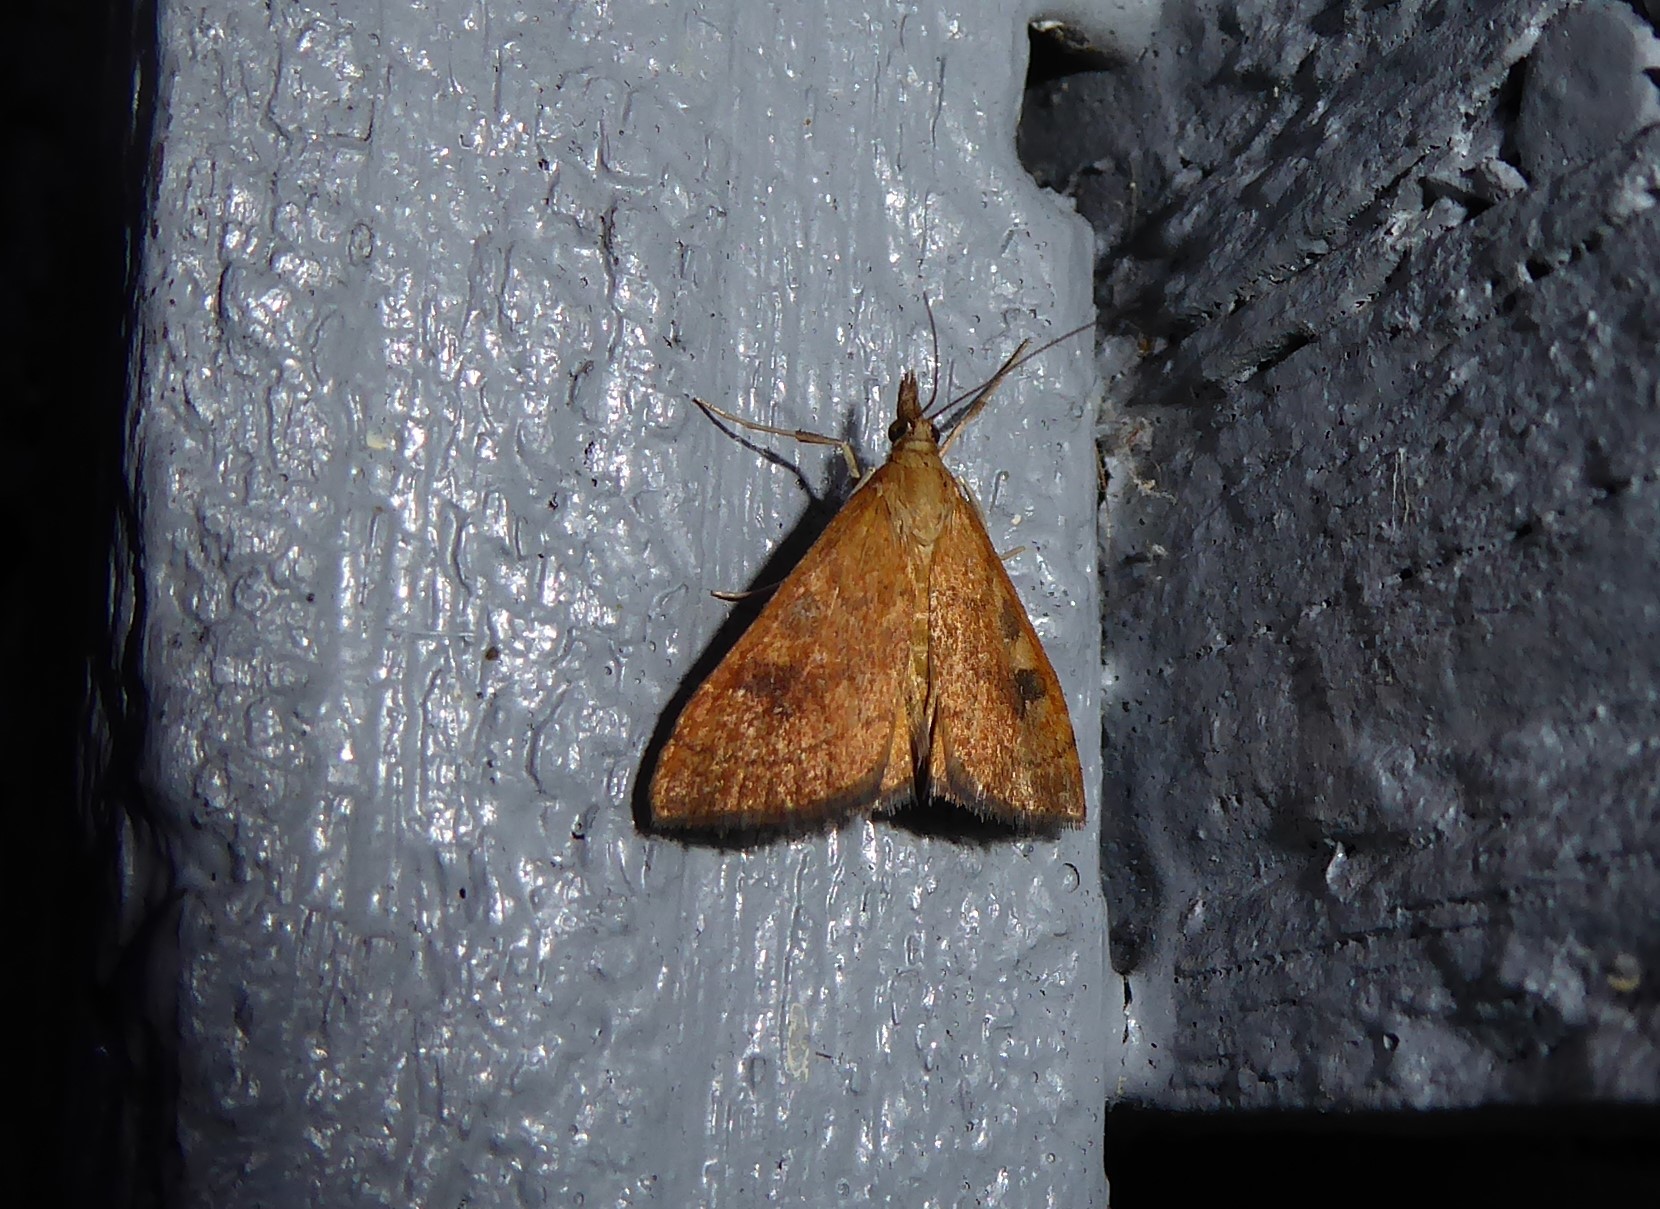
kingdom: Animalia
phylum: Arthropoda
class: Insecta
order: Lepidoptera
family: Crambidae
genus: Udea
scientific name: Udea Mnesictena flavidalis
